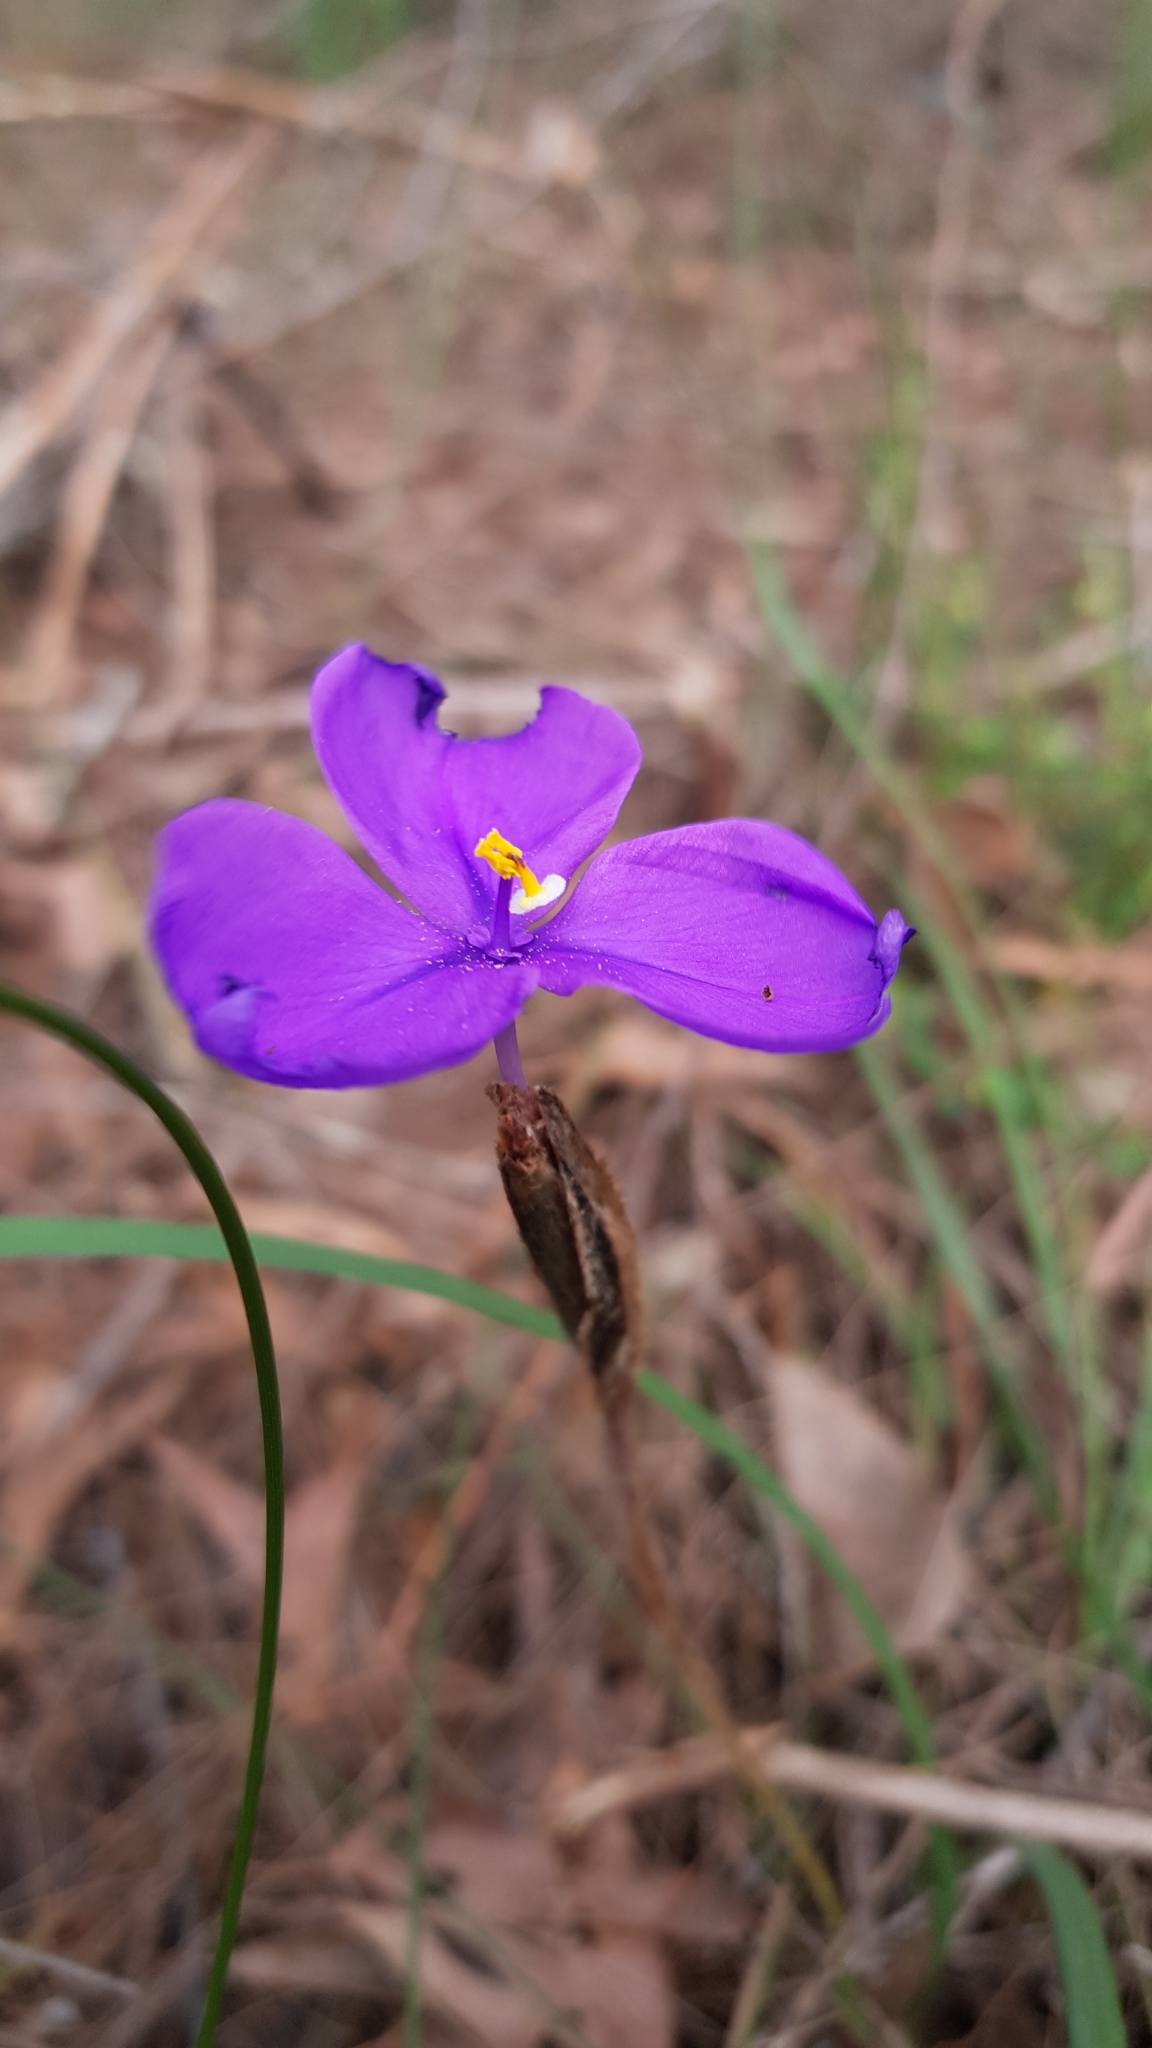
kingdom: Plantae
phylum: Tracheophyta
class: Liliopsida
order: Asparagales
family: Iridaceae
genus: Patersonia
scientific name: Patersonia sericea
